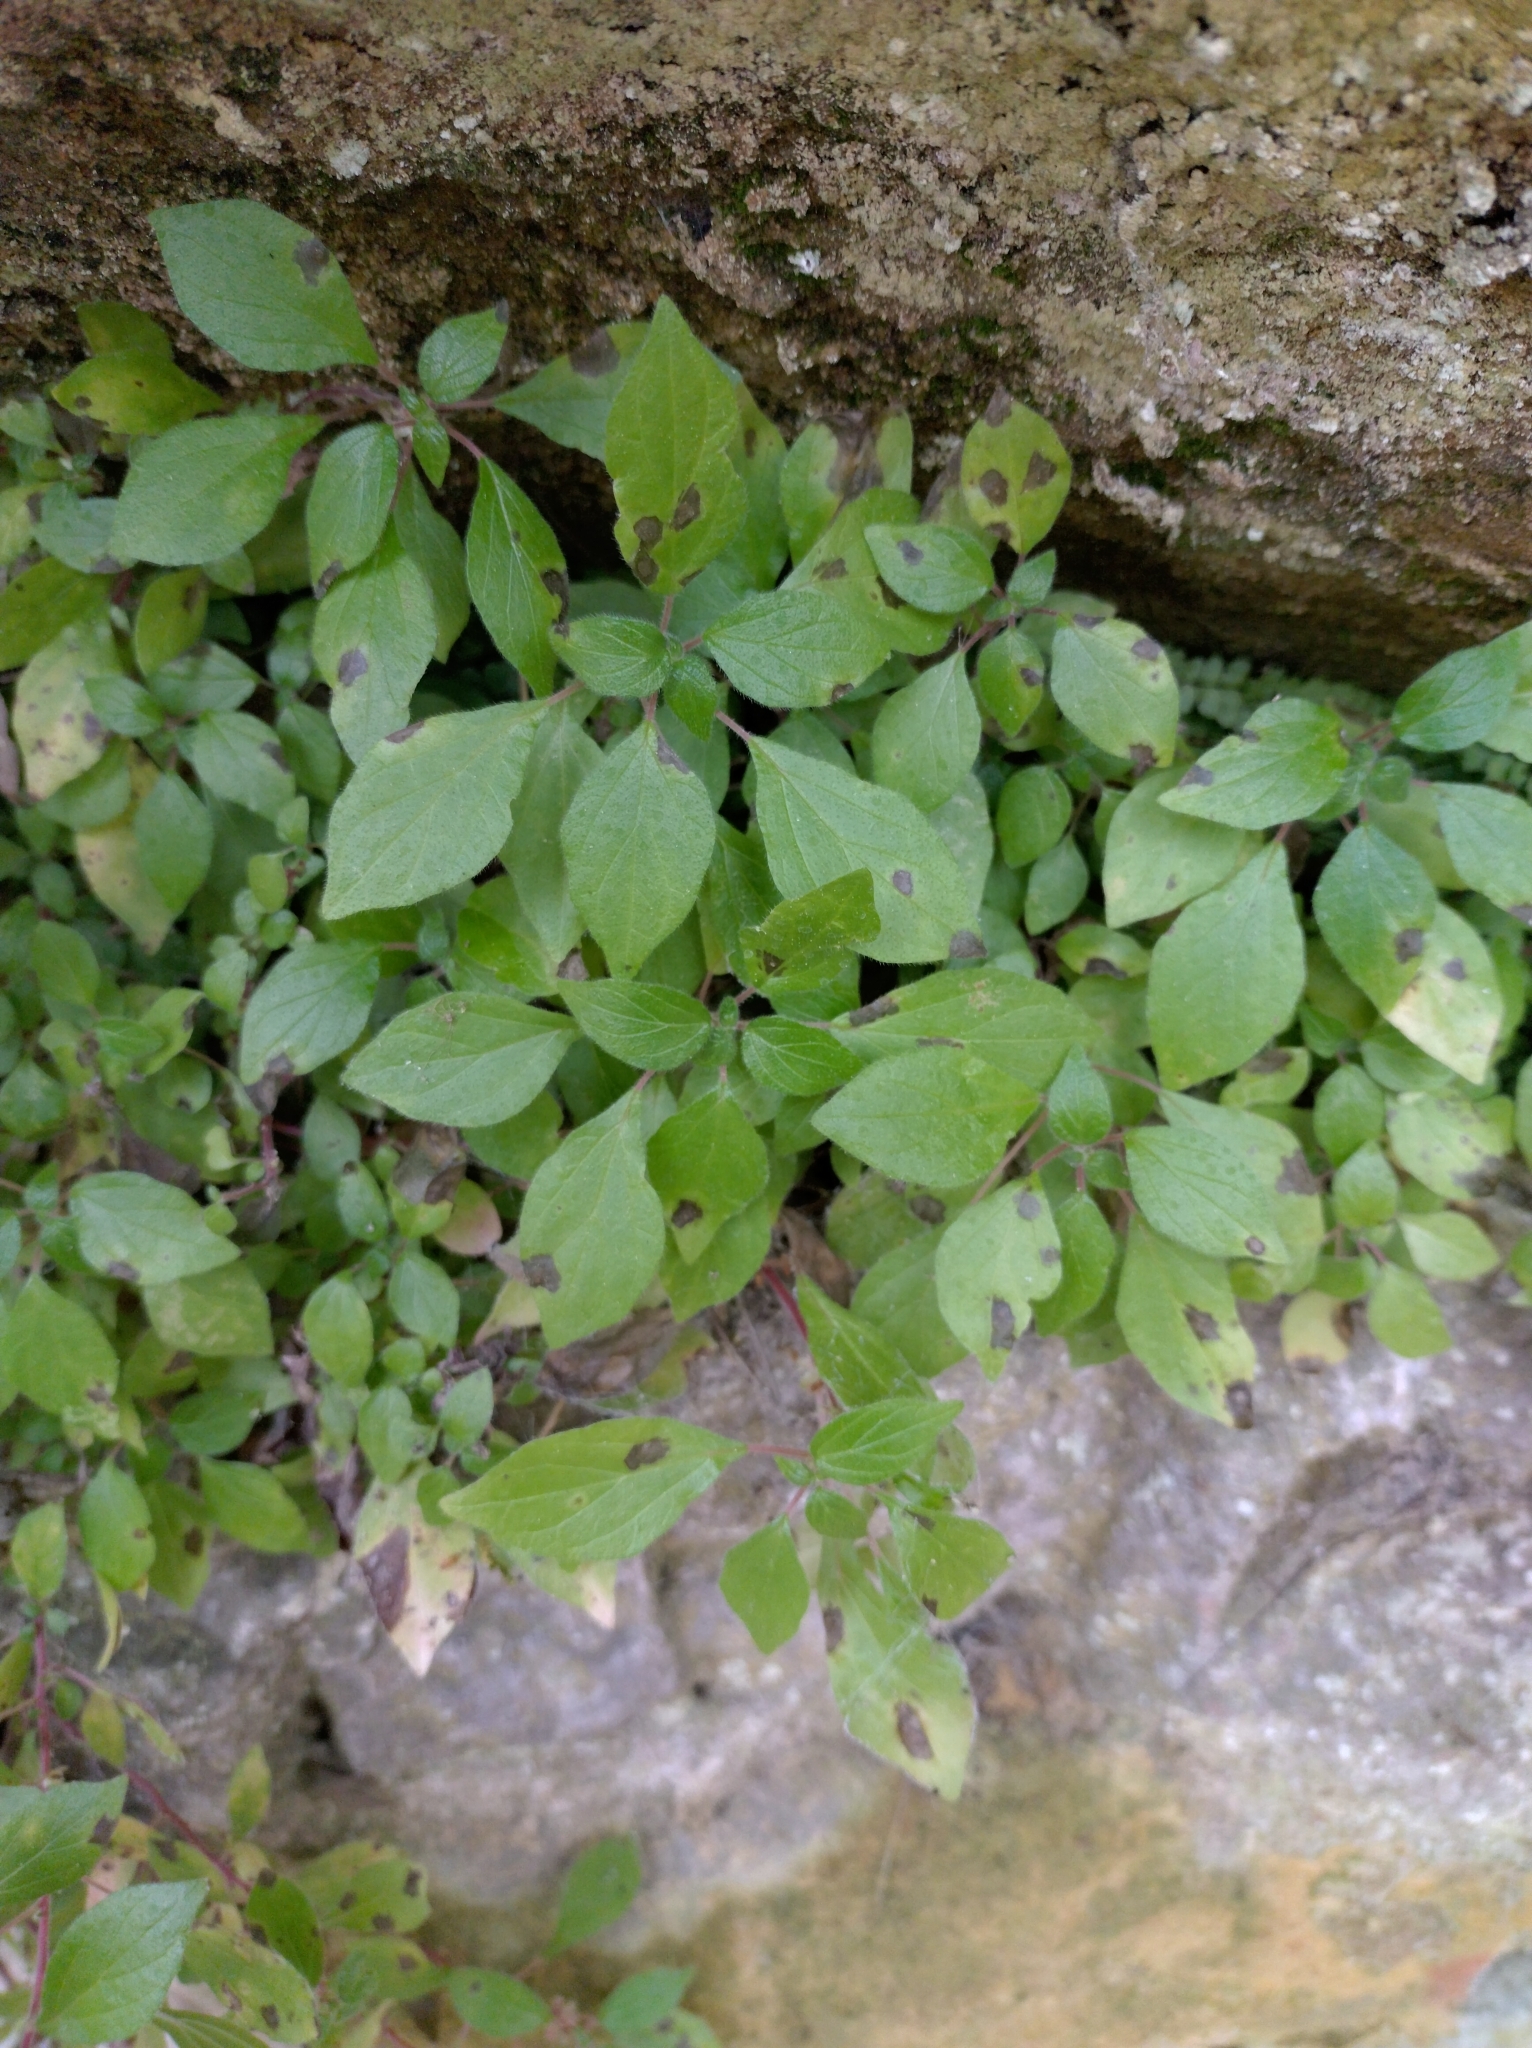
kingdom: Plantae
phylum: Tracheophyta
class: Magnoliopsida
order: Rosales
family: Urticaceae
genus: Parietaria
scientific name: Parietaria judaica
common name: Pellitory-of-the-wall
